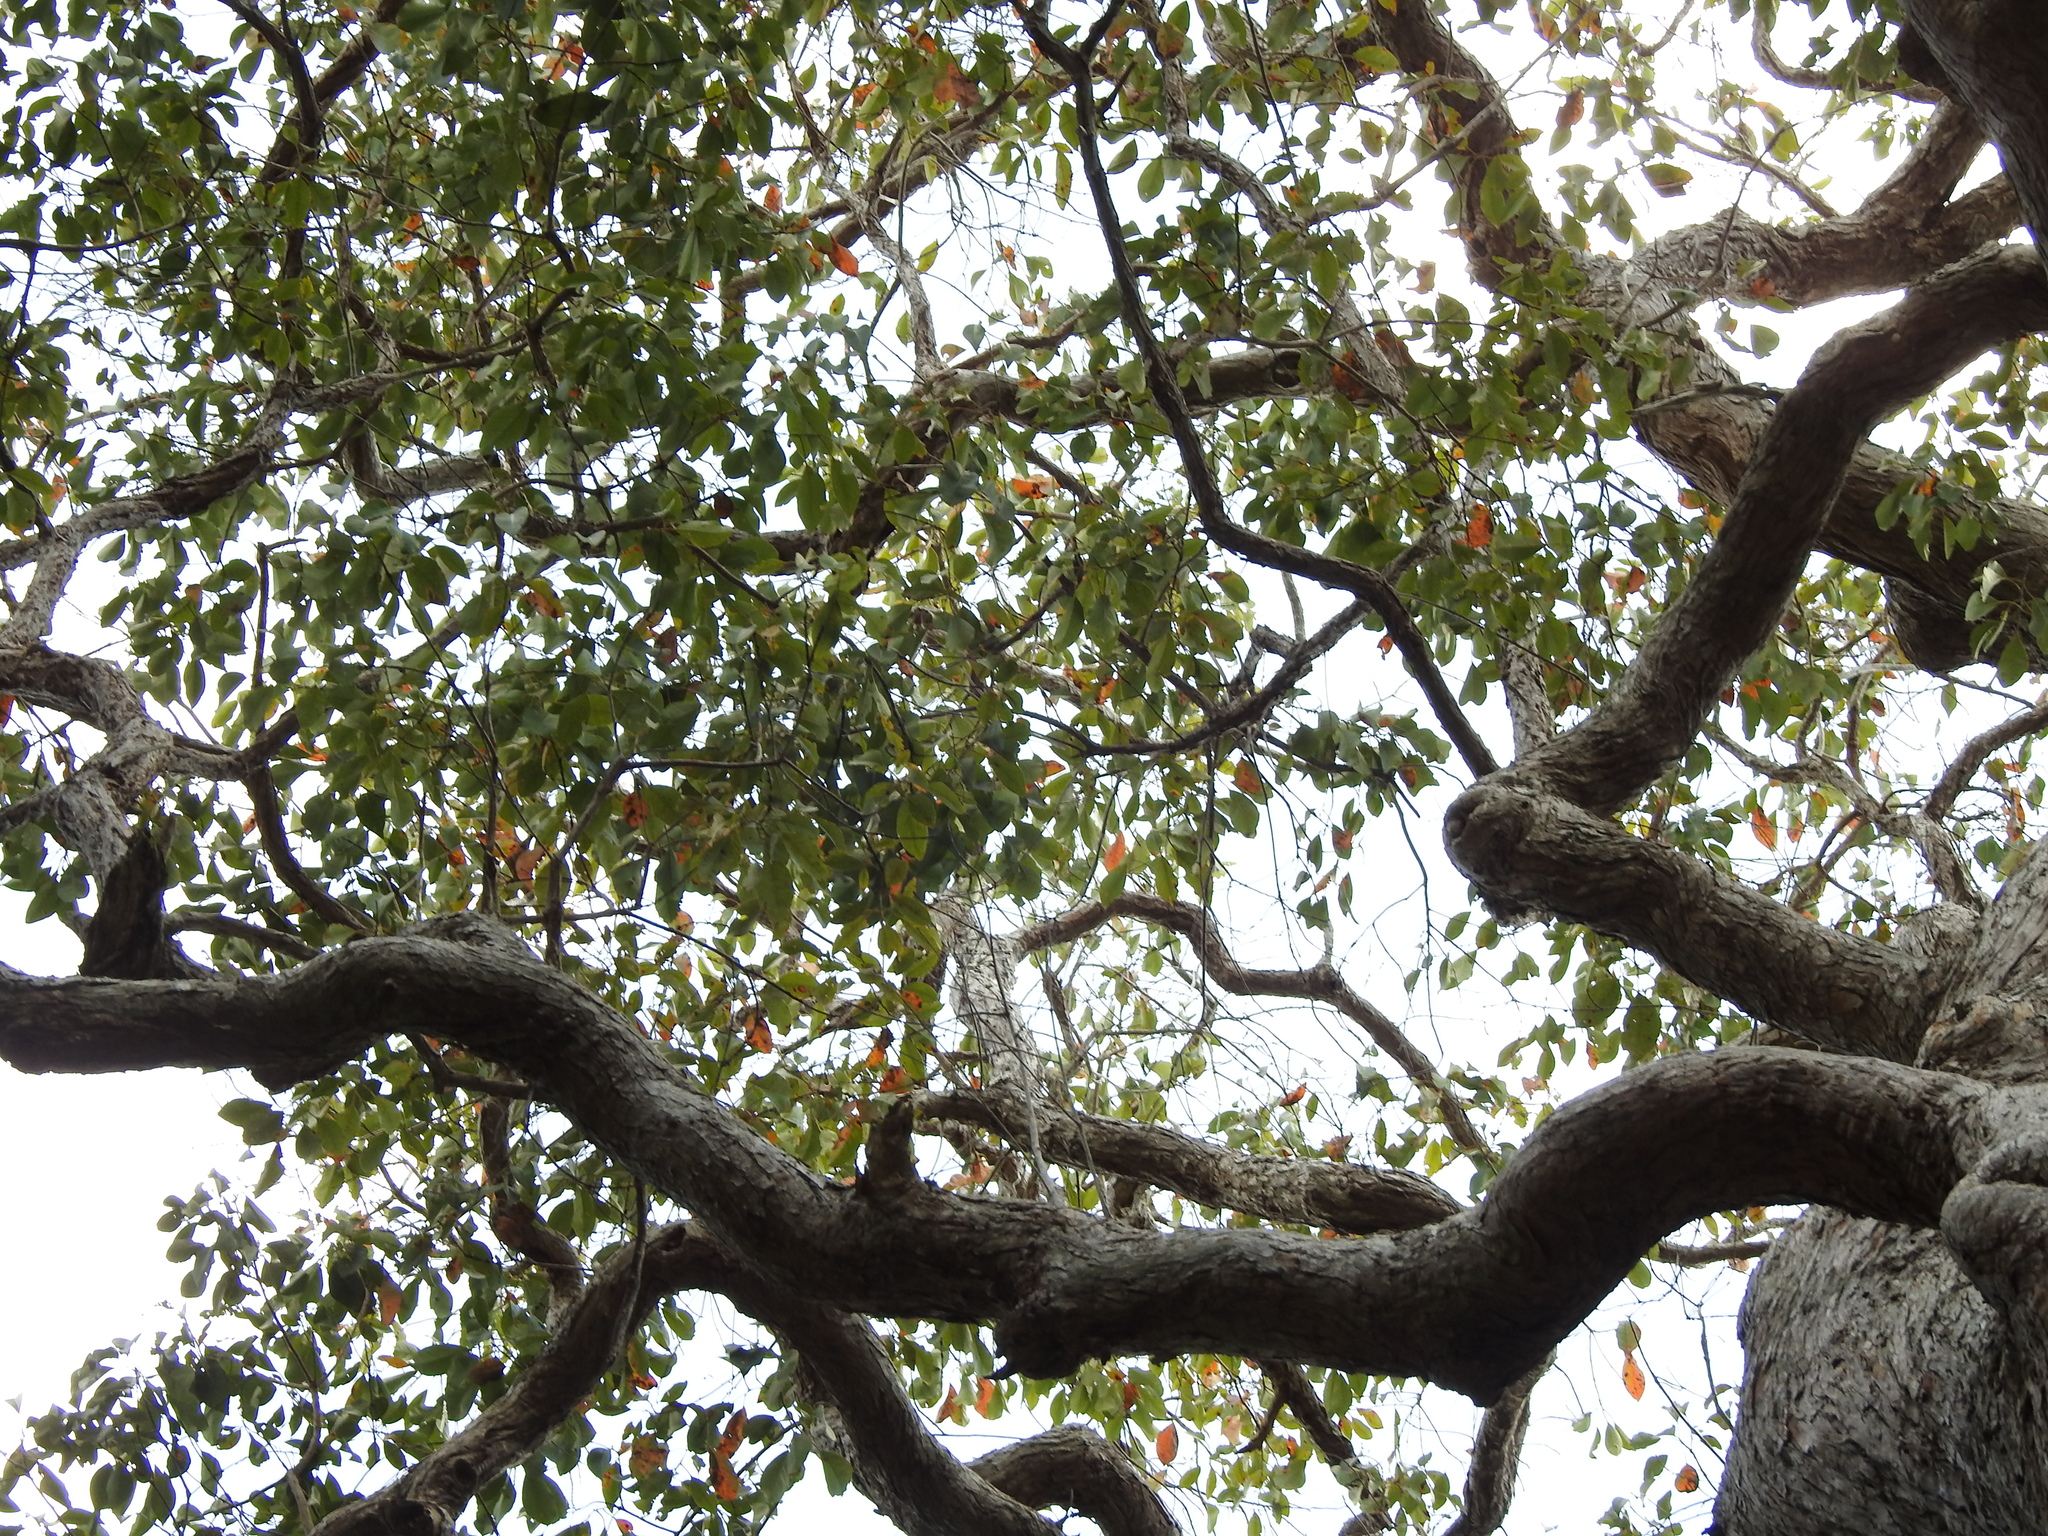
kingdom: Plantae
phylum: Tracheophyta
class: Magnoliopsida
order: Myrtales
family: Myrtaceae
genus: Lophostemon
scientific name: Lophostemon suaveolens
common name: Paperbark-mahogany
